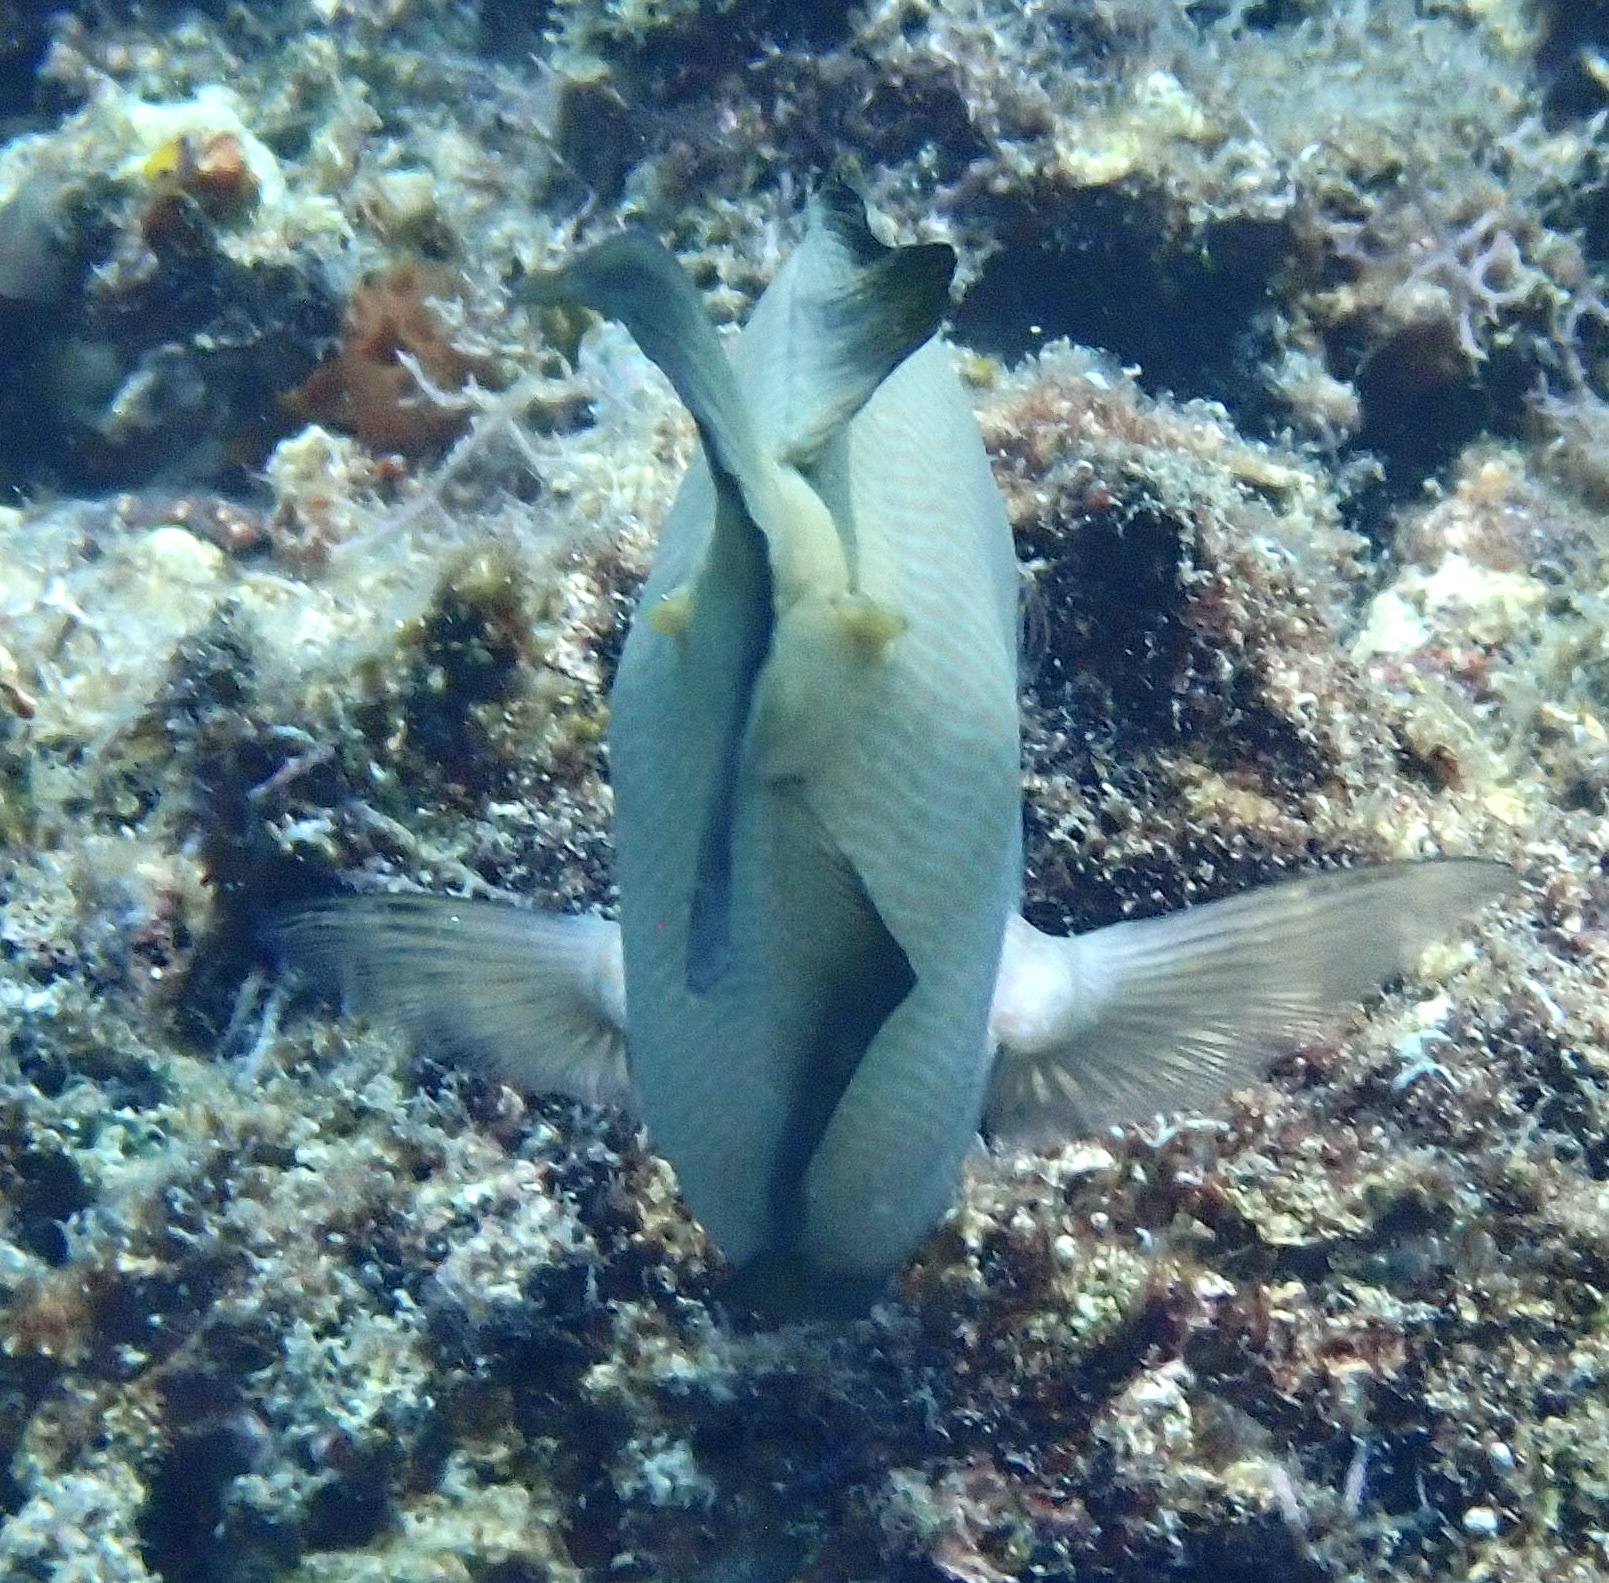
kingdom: Animalia
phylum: Chordata
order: Perciformes
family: Acanthuridae
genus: Ctenochaetus
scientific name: Ctenochaetus striatus
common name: Bristle-toothed surgeonfish
